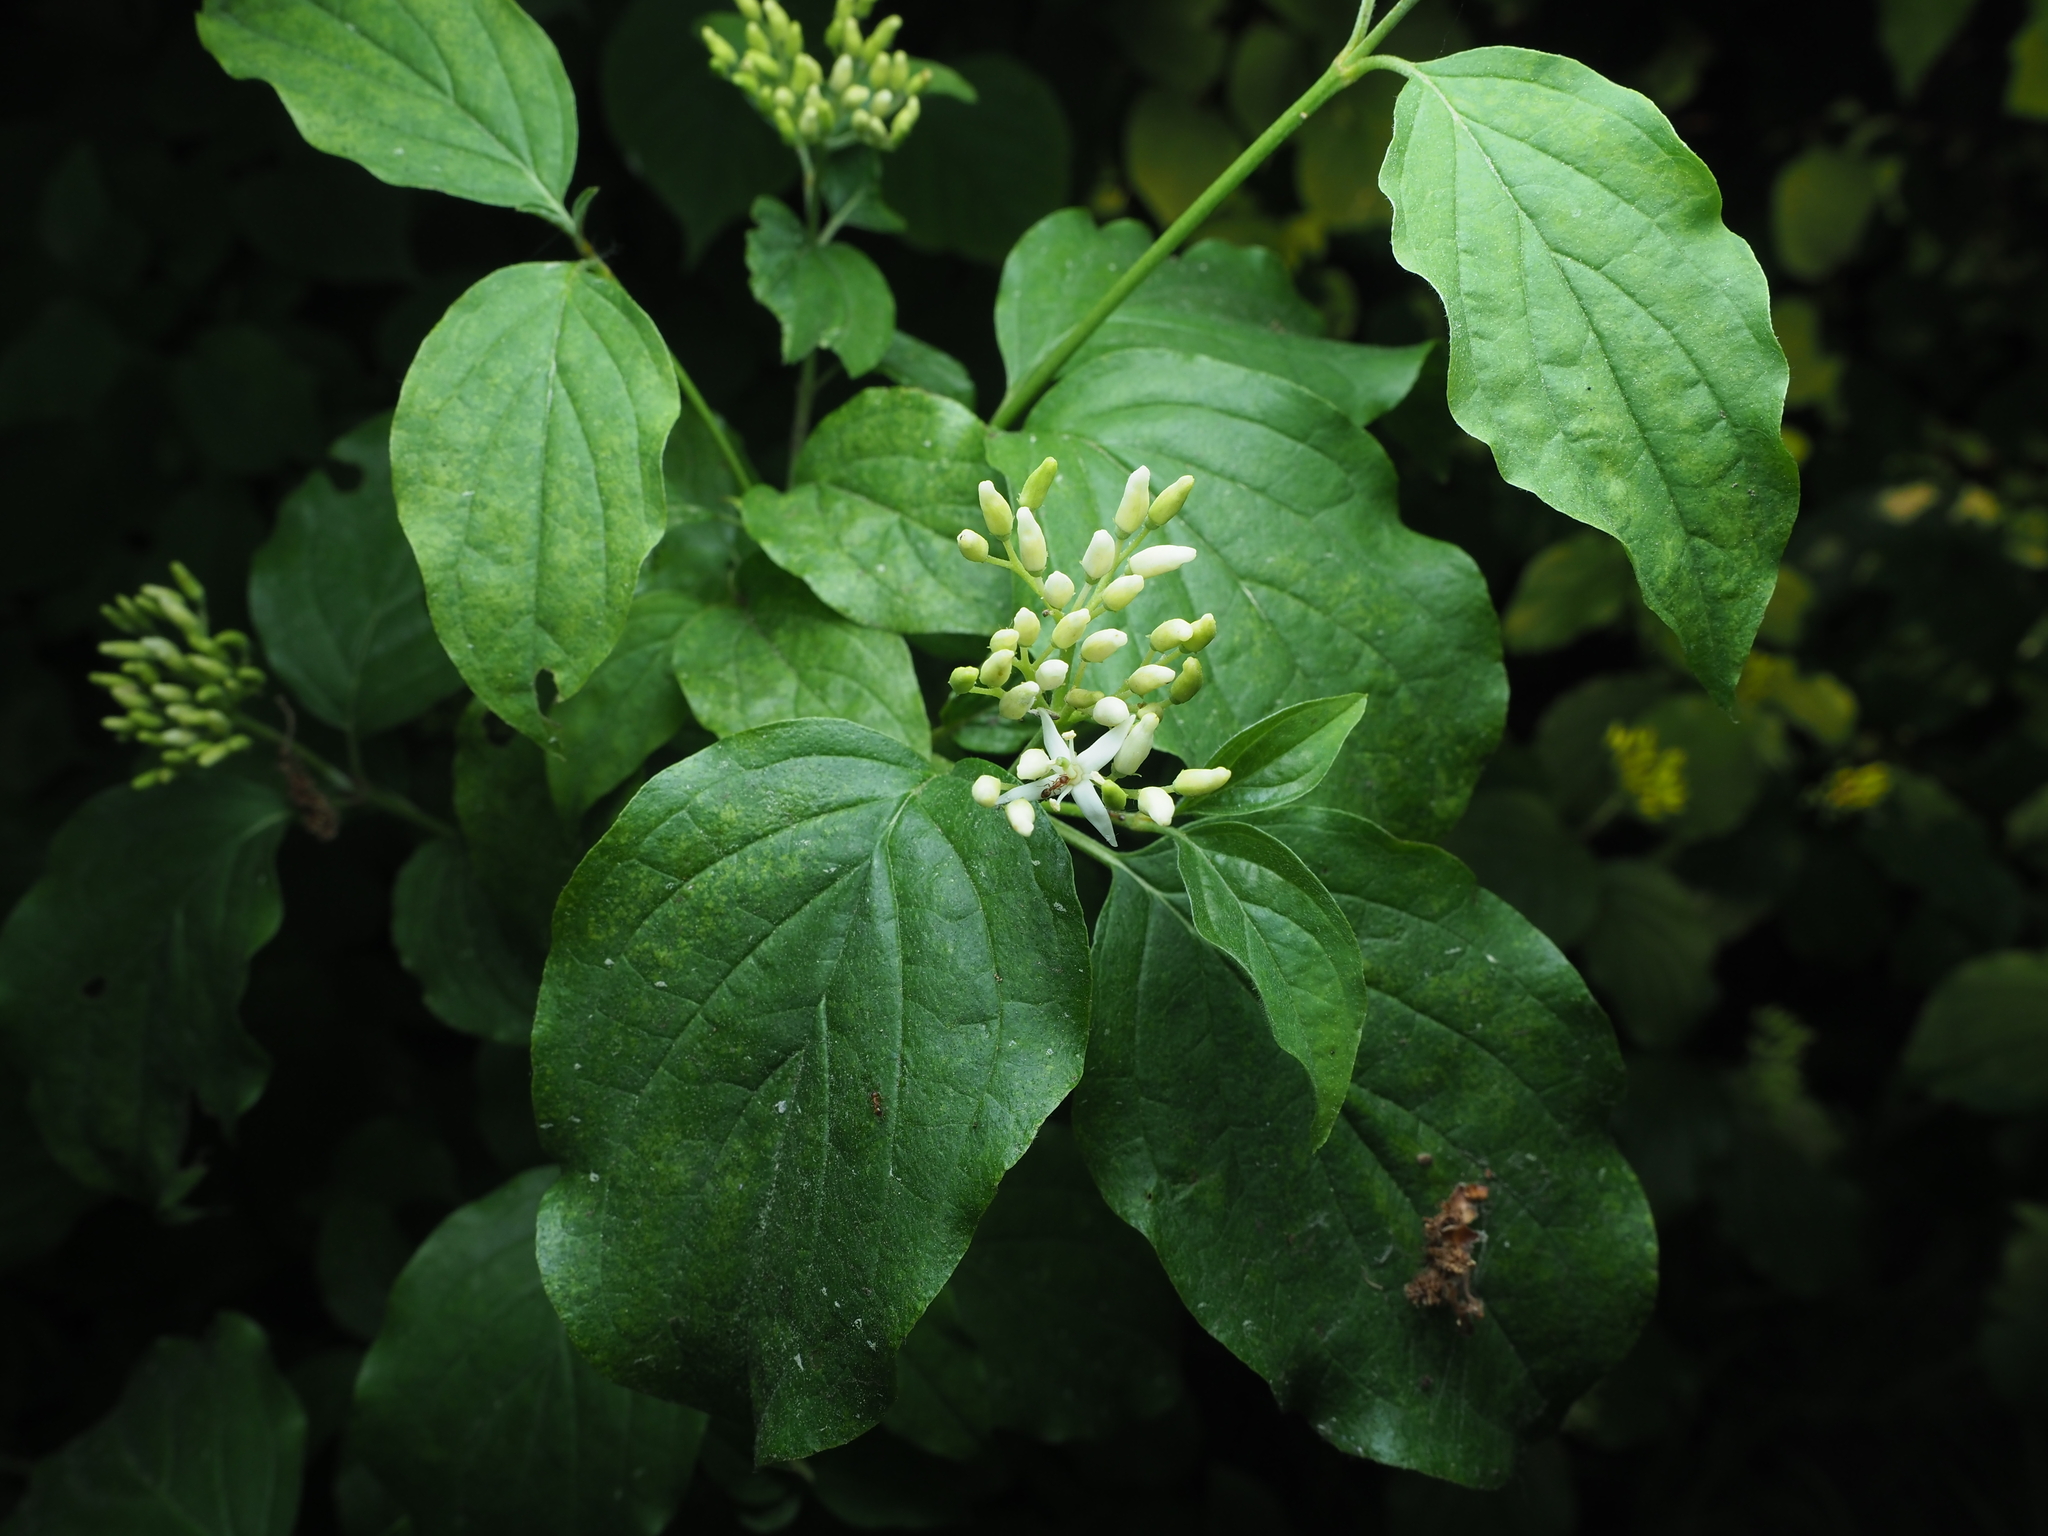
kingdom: Plantae
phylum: Tracheophyta
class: Magnoliopsida
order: Cornales
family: Cornaceae
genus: Cornus
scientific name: Cornus sanguinea
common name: Dogwood
